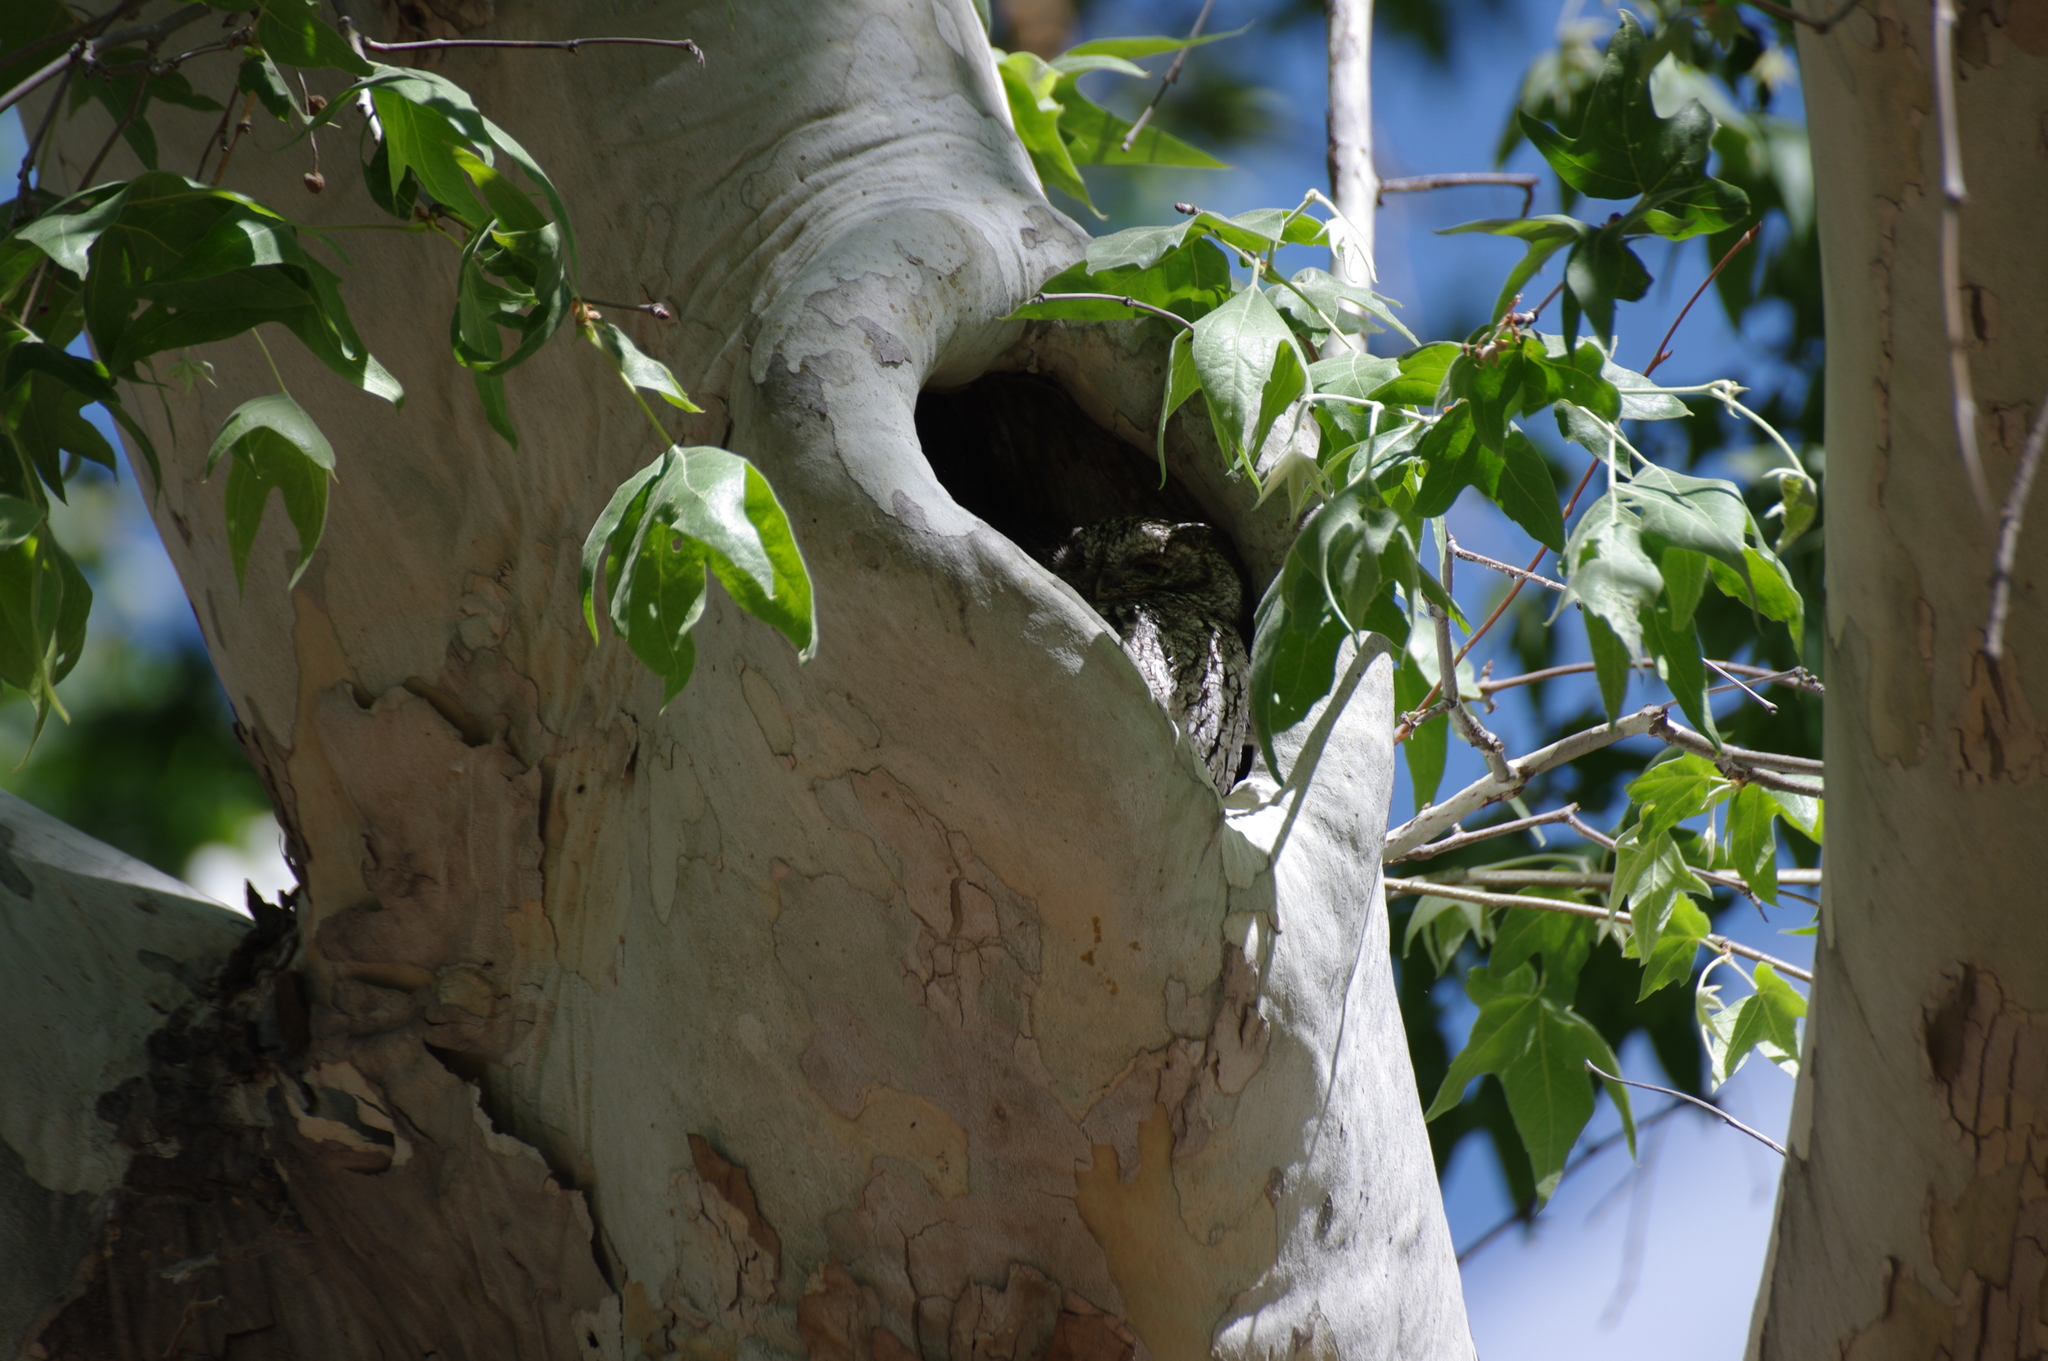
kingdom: Animalia
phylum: Chordata
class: Aves
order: Strigiformes
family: Strigidae
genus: Megascops
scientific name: Megascops trichopsis
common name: Whiskered screech-owl
